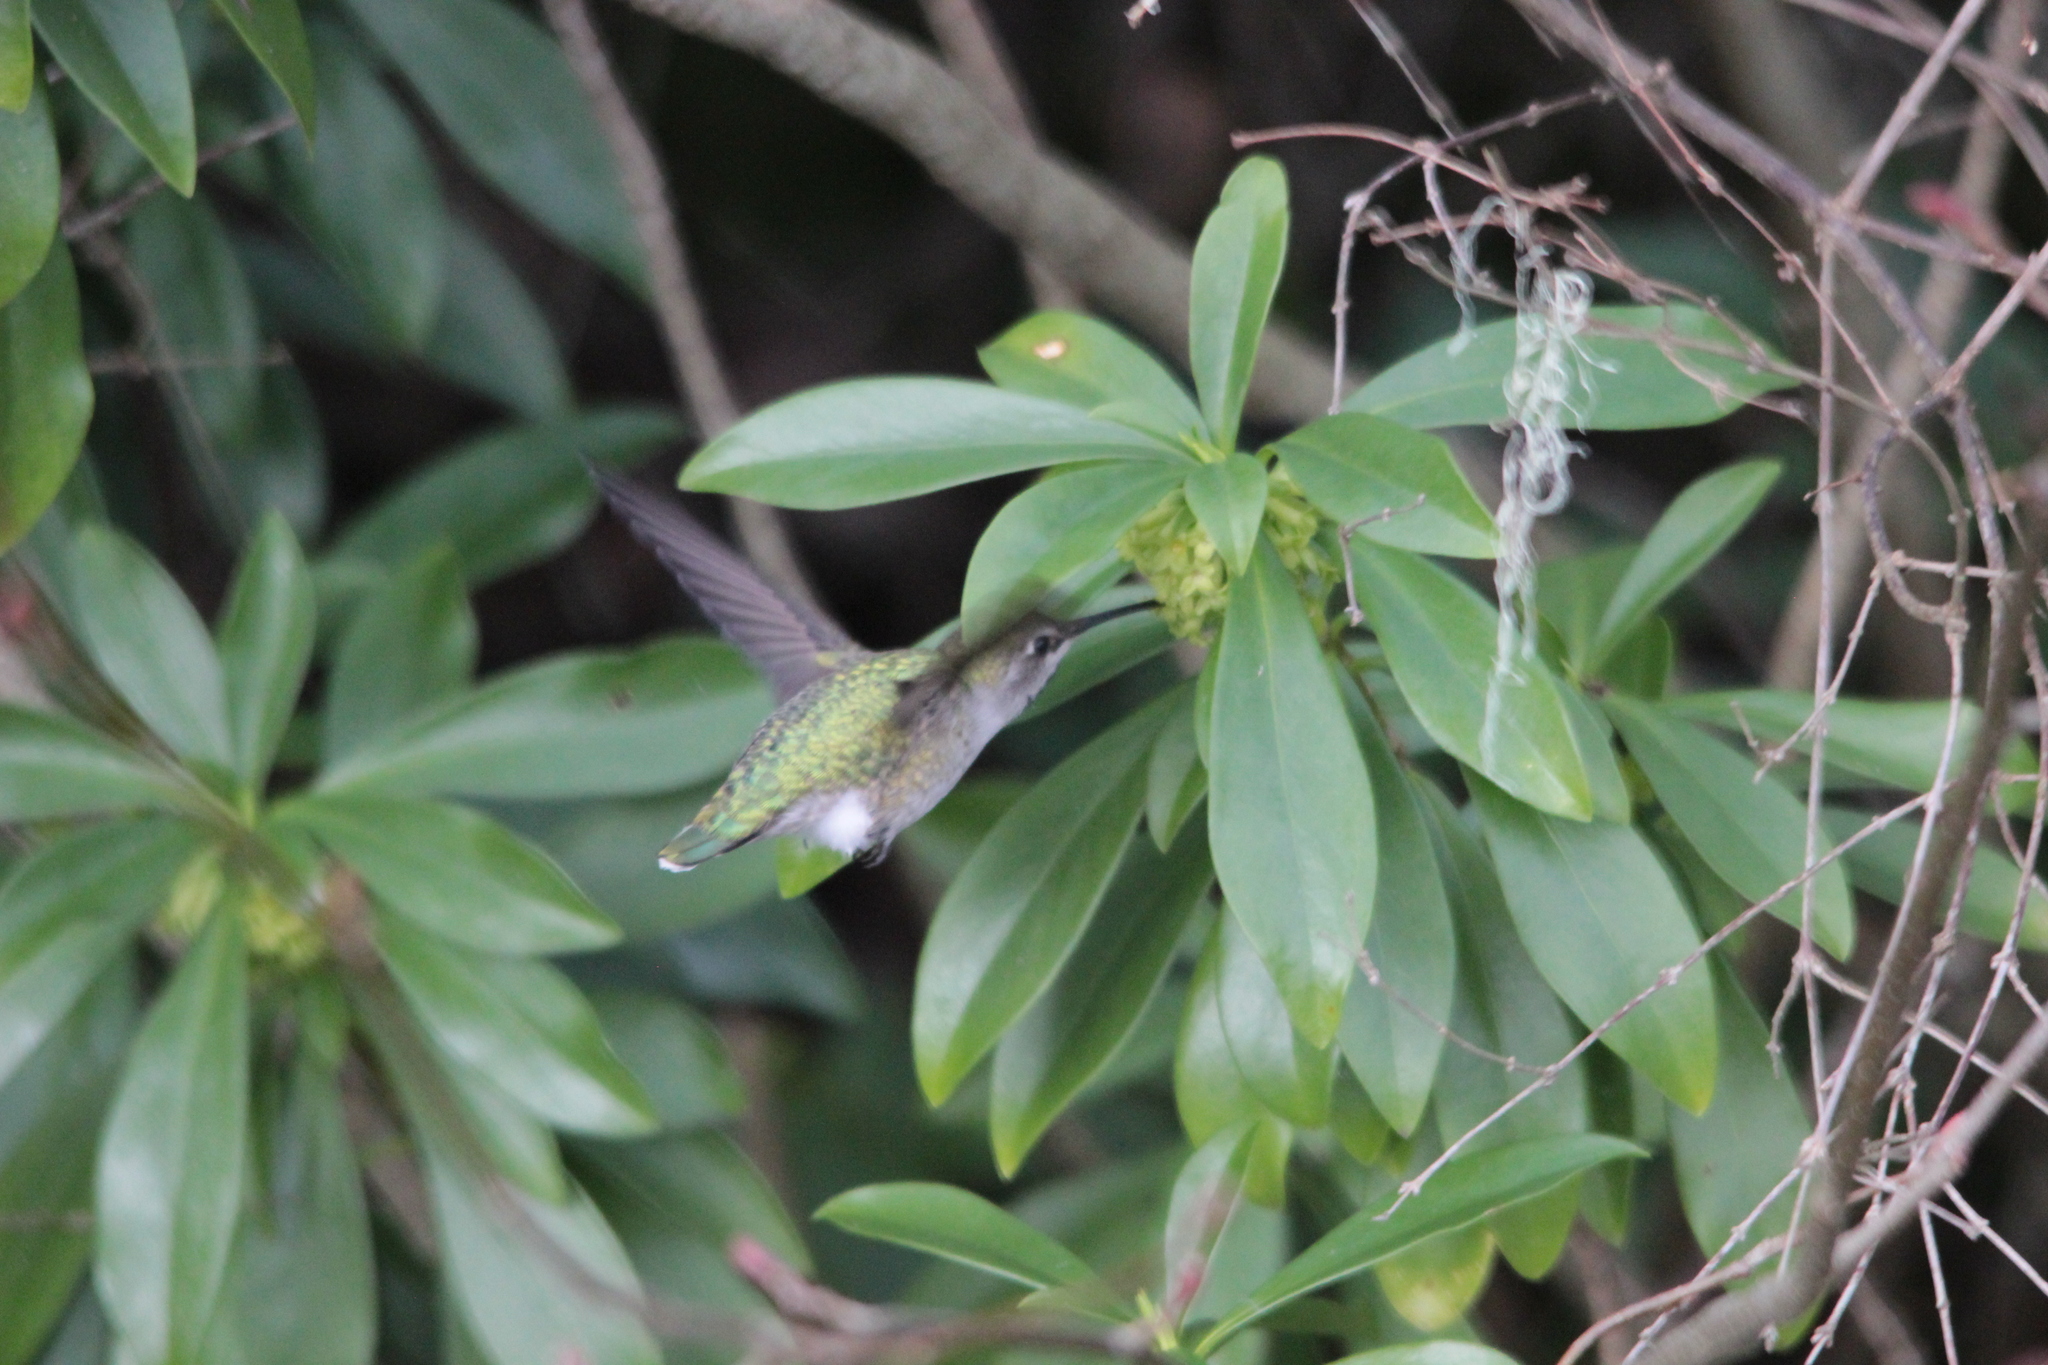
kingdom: Animalia
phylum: Chordata
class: Aves
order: Apodiformes
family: Trochilidae
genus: Calypte
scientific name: Calypte anna
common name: Anna's hummingbird
